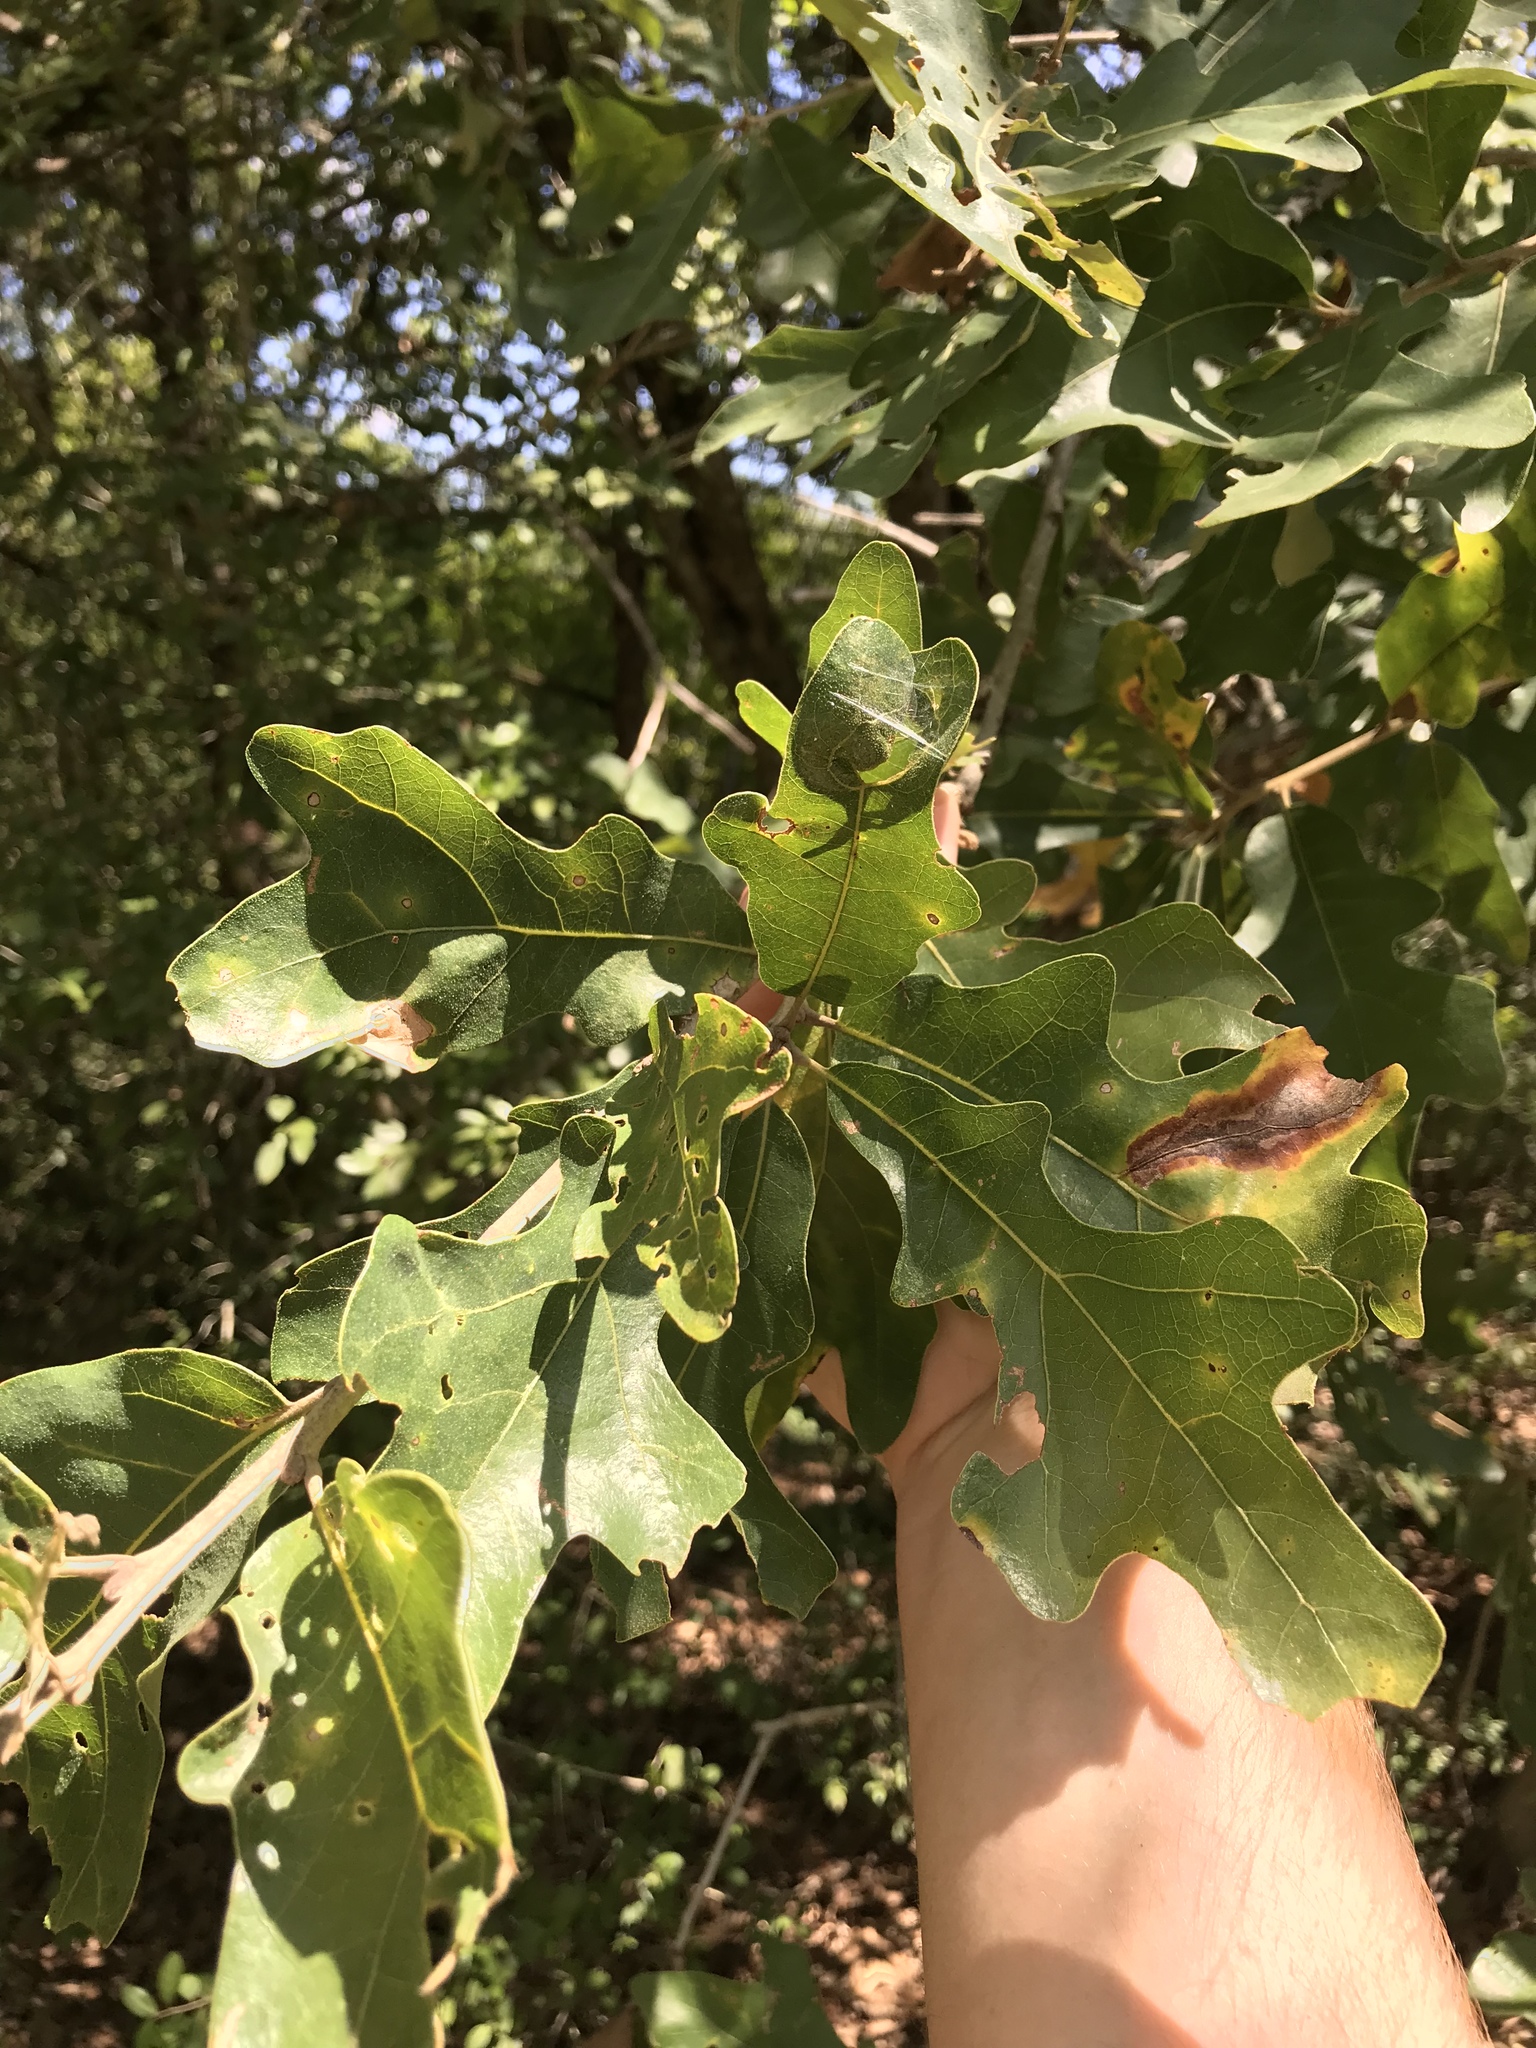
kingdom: Plantae
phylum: Tracheophyta
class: Magnoliopsida
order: Fagales
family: Fagaceae
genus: Quercus
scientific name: Quercus stellata
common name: Post oak
